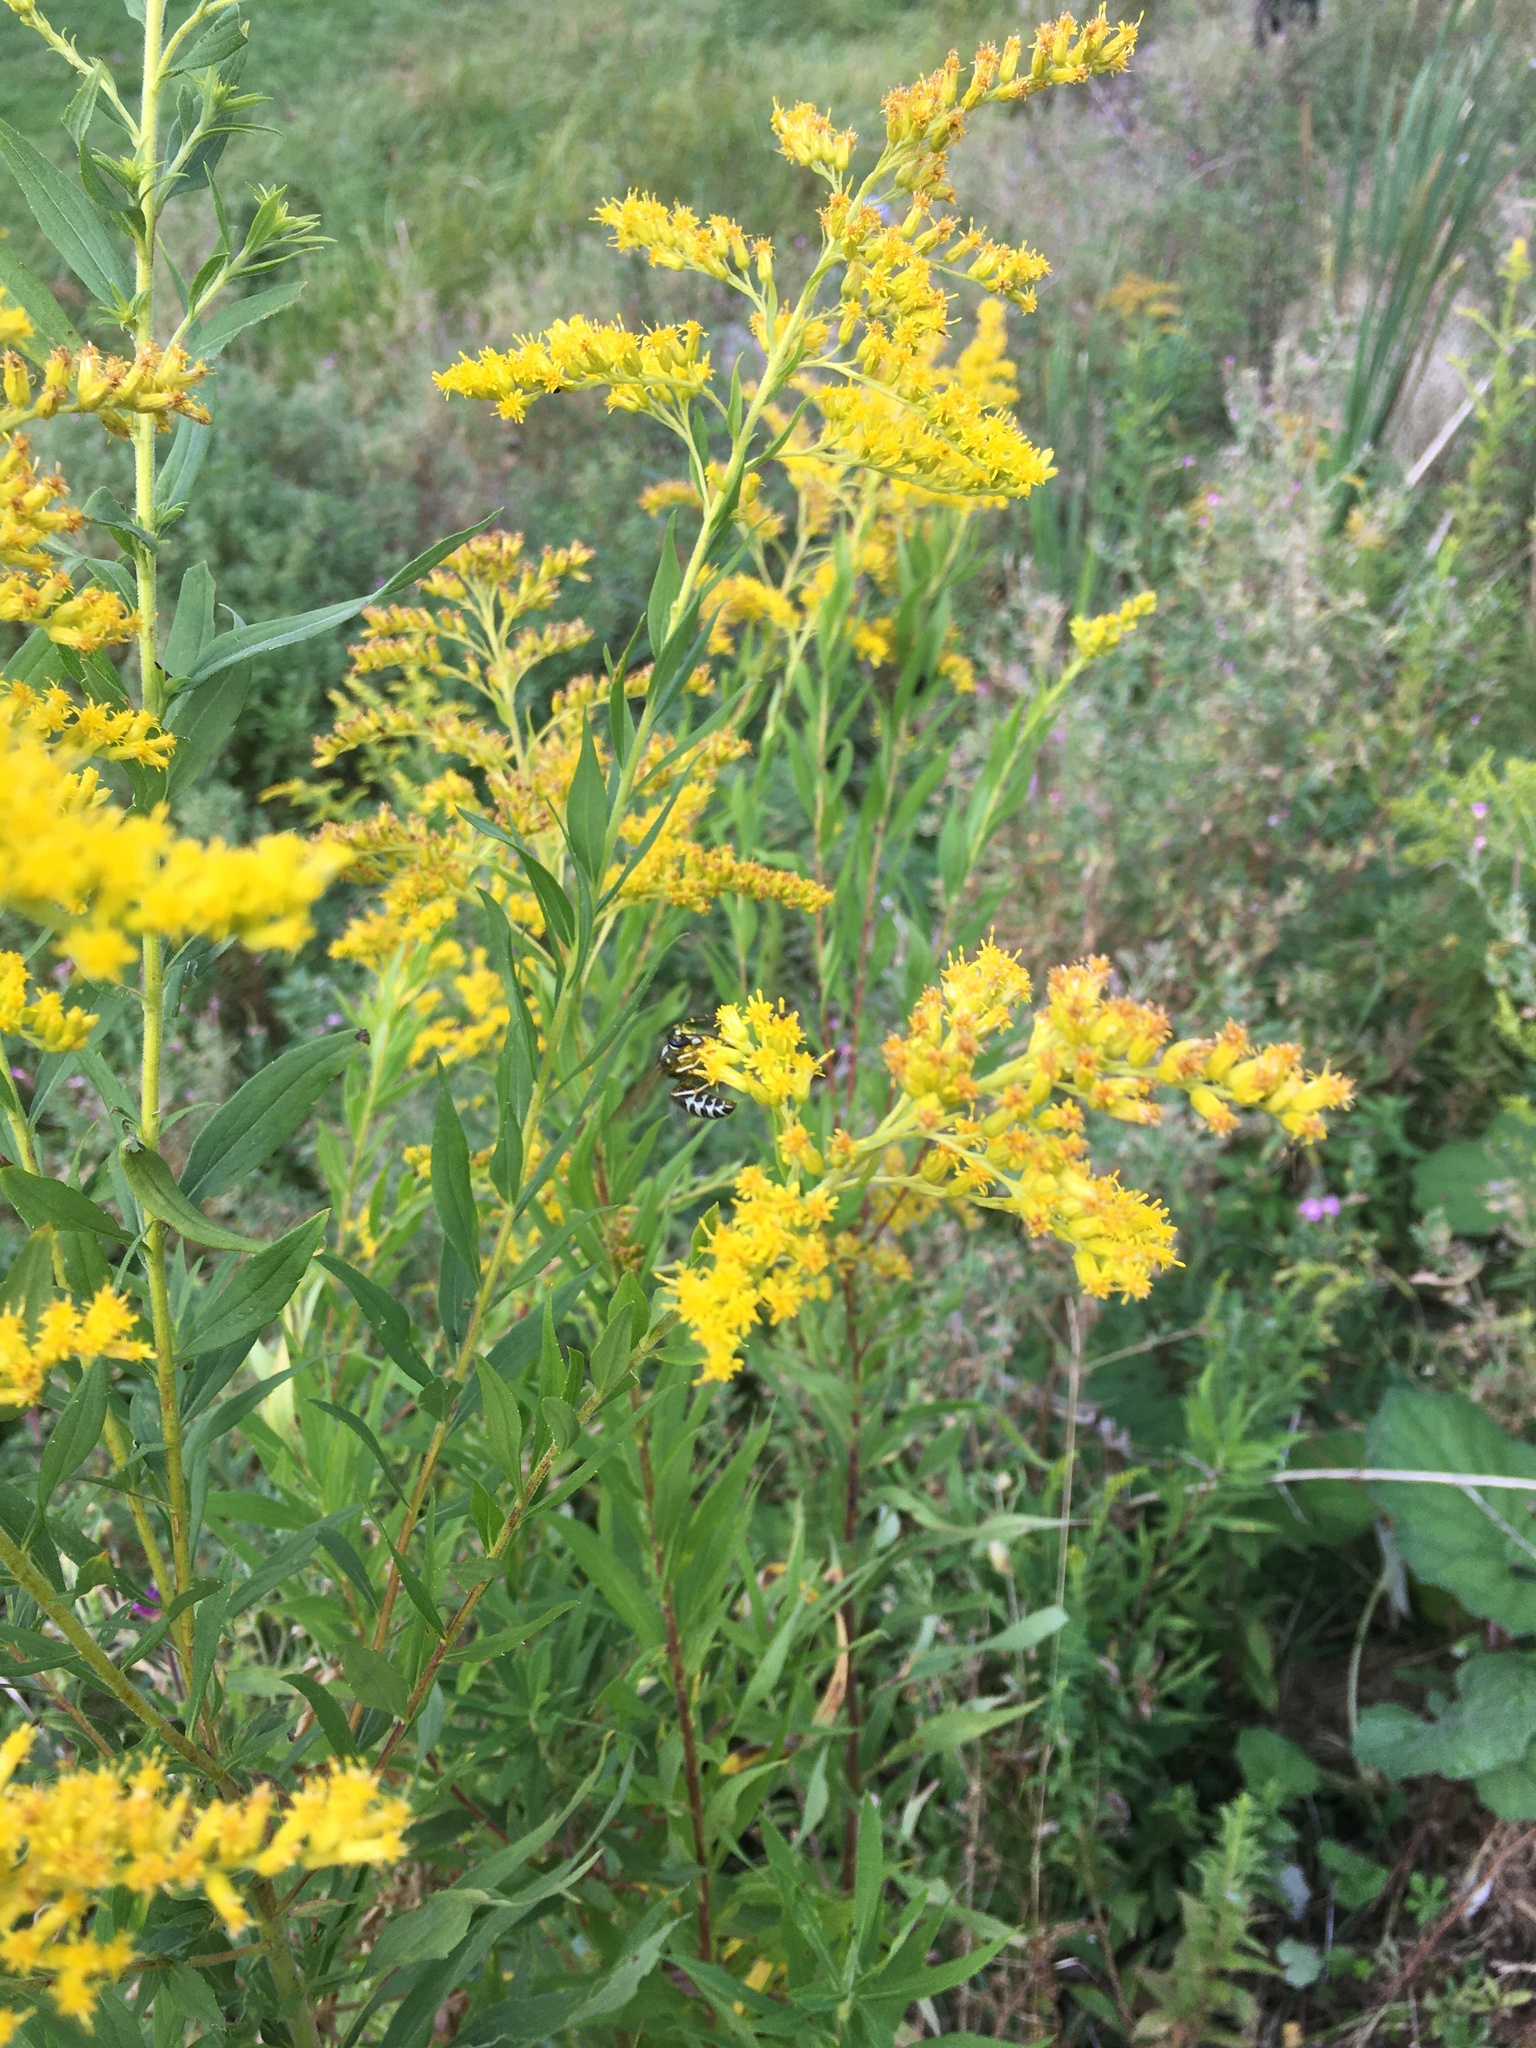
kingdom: Animalia
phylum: Arthropoda
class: Insecta
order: Hymenoptera
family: Vespidae
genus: Vespula
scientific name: Vespula consobrina
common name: Blackjacket
